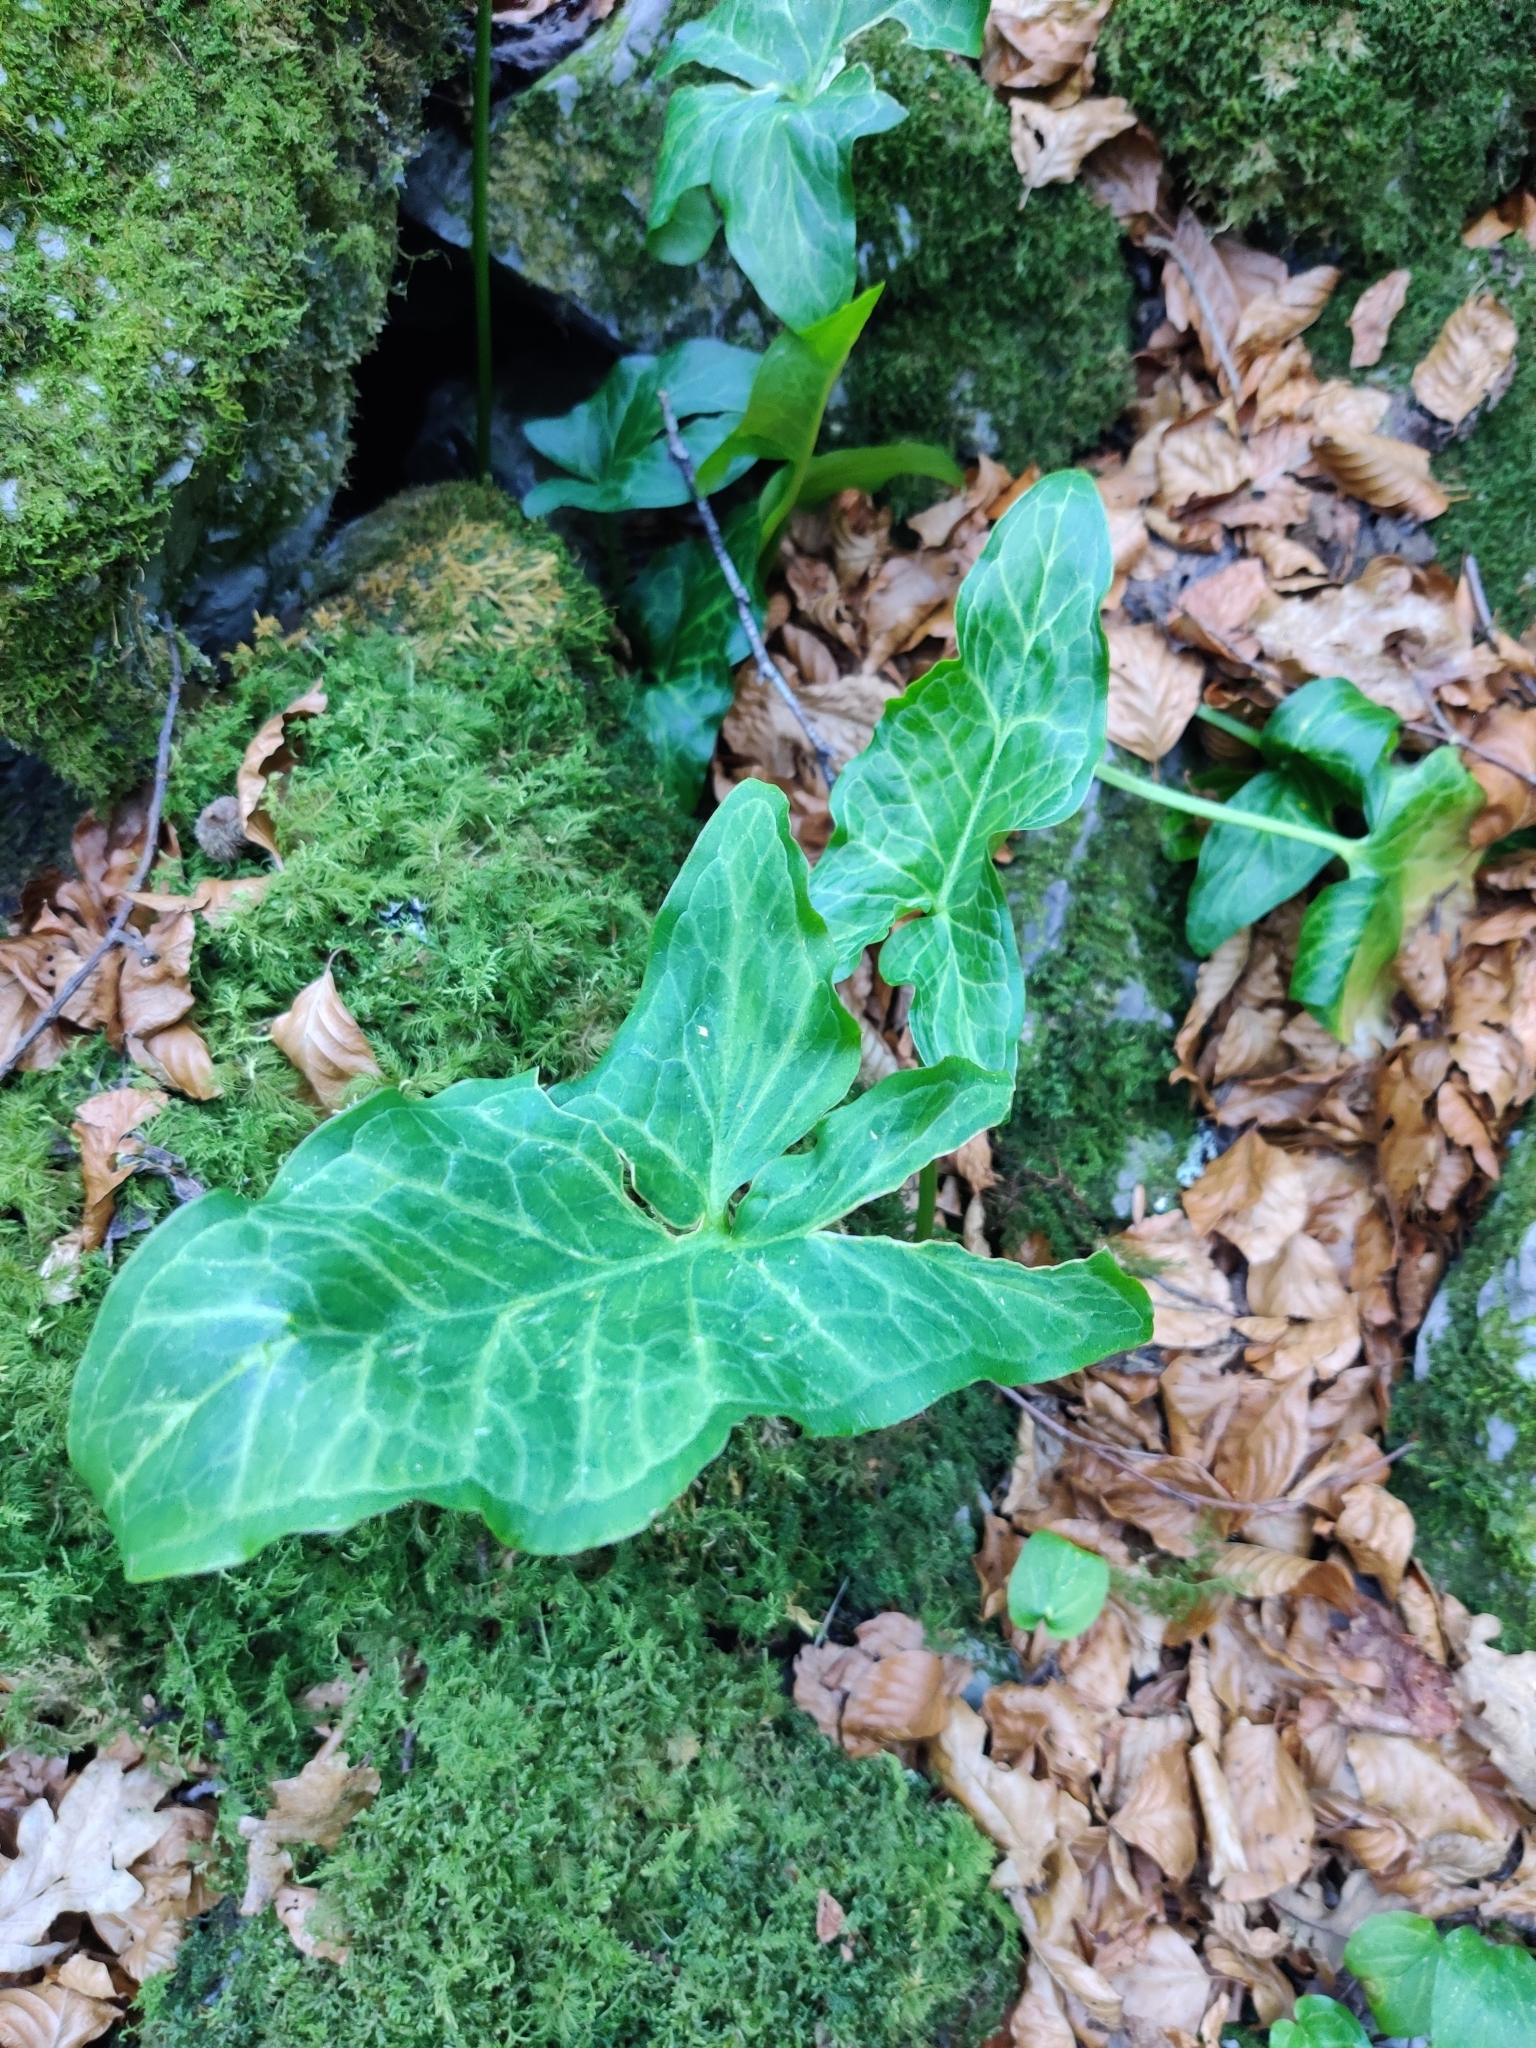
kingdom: Plantae
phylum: Tracheophyta
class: Liliopsida
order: Alismatales
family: Araceae
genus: Arum
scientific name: Arum italicum
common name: Italian lords-and-ladies
